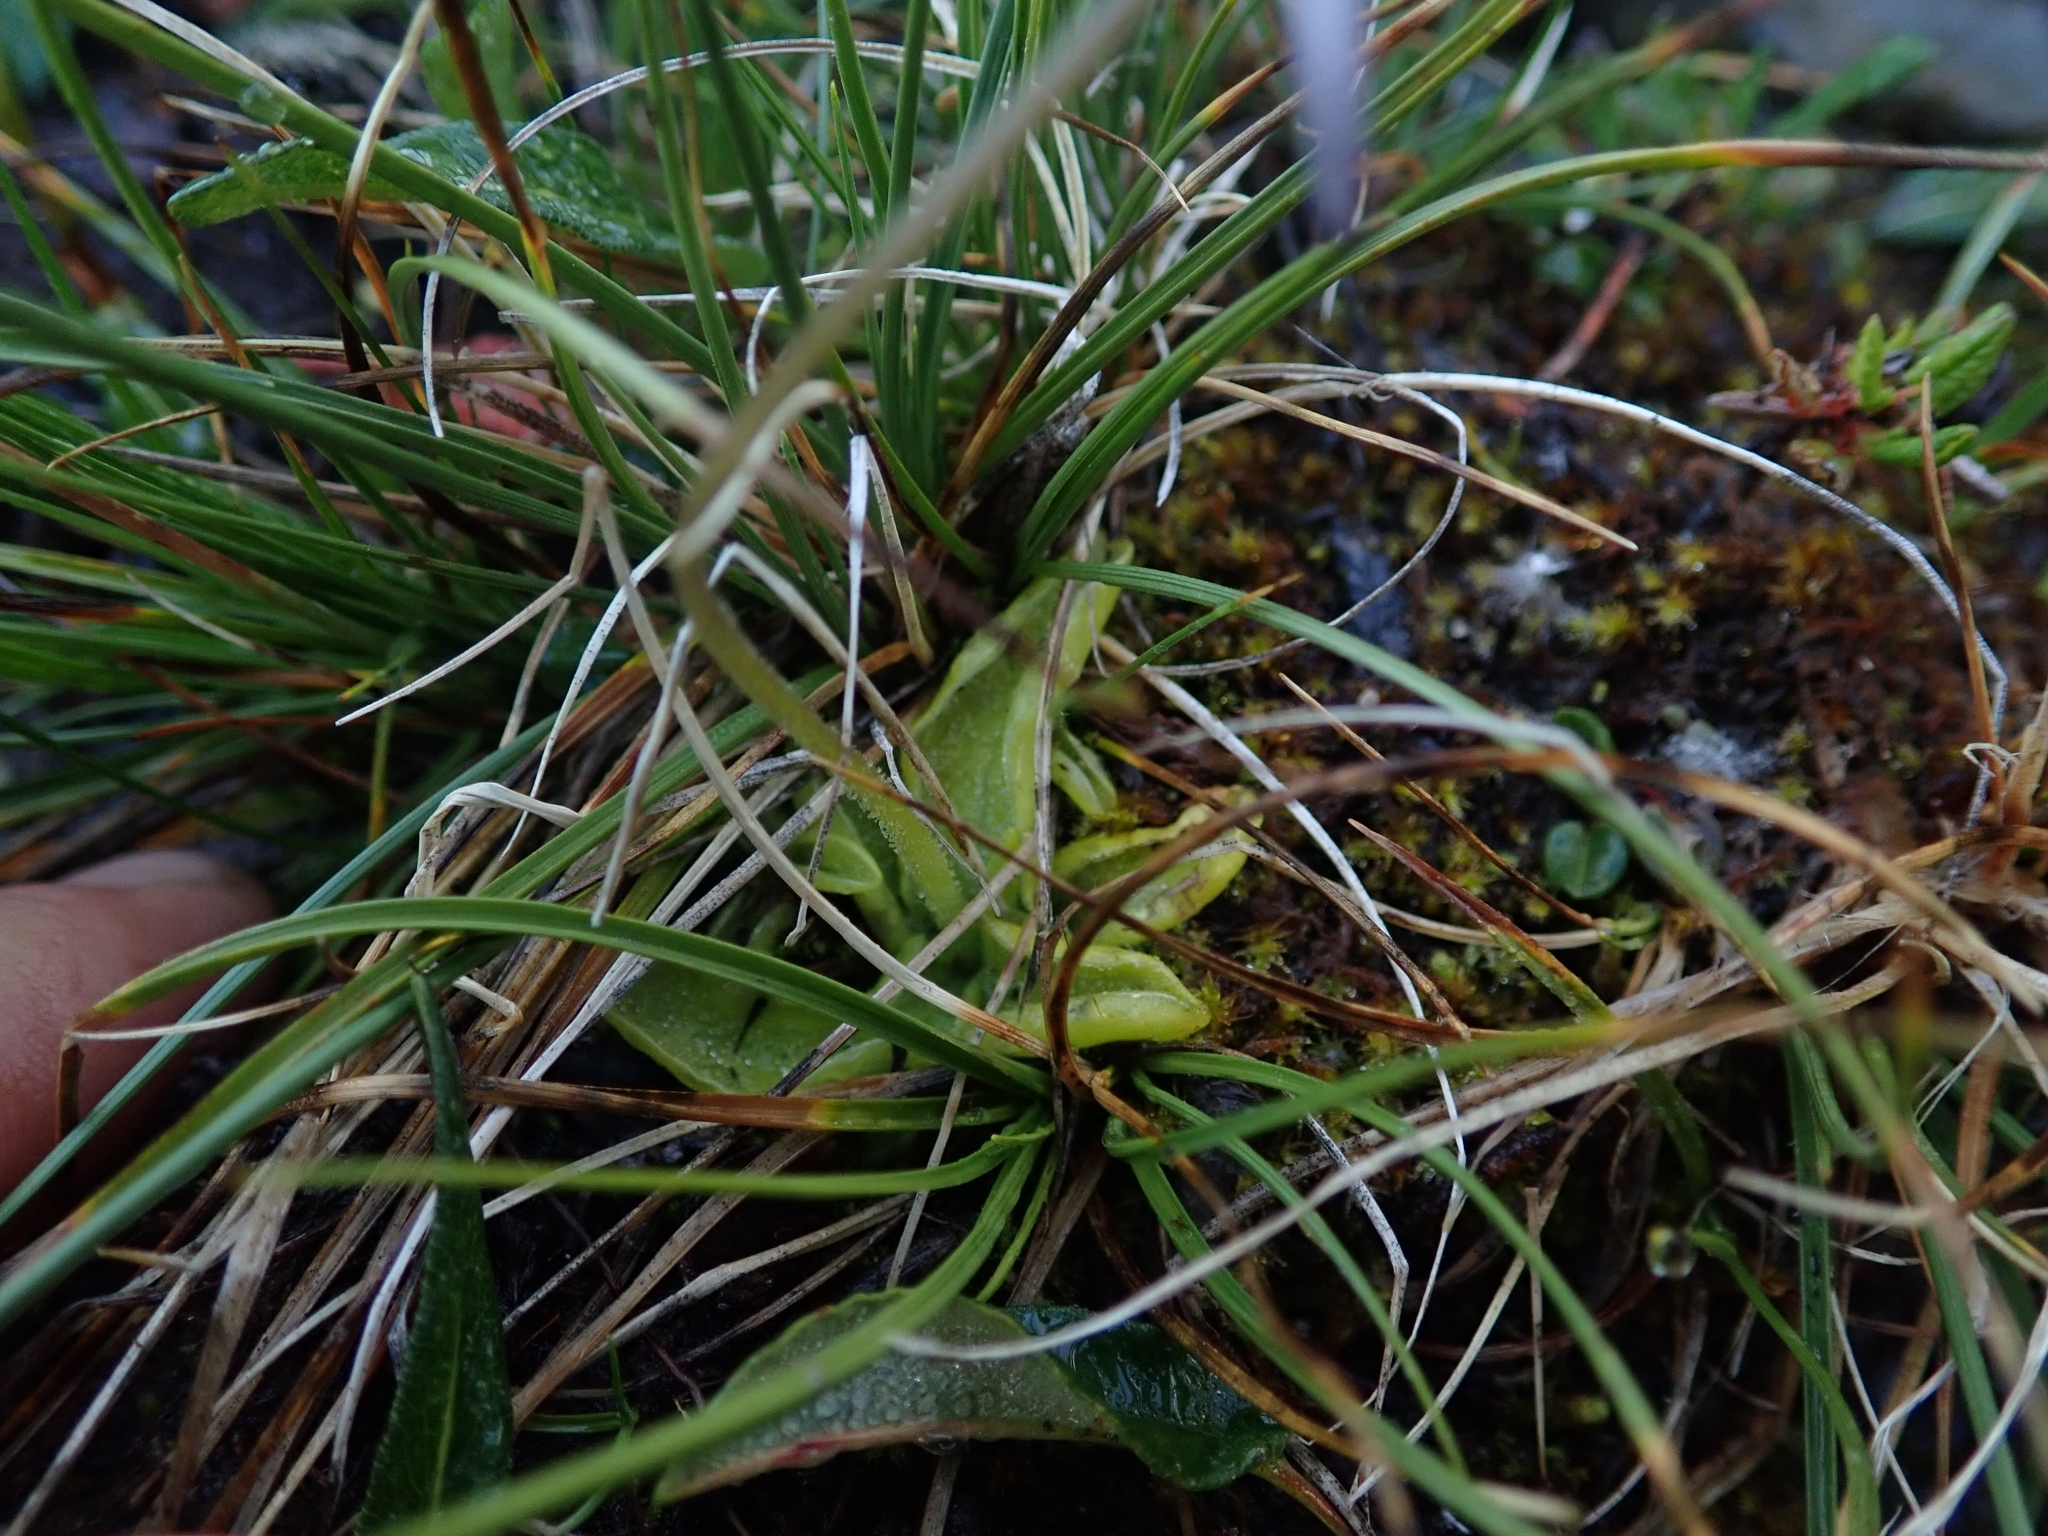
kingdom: Plantae
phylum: Tracheophyta
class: Magnoliopsida
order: Lamiales
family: Lentibulariaceae
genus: Pinguicula
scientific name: Pinguicula vulgaris
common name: Common butterwort
